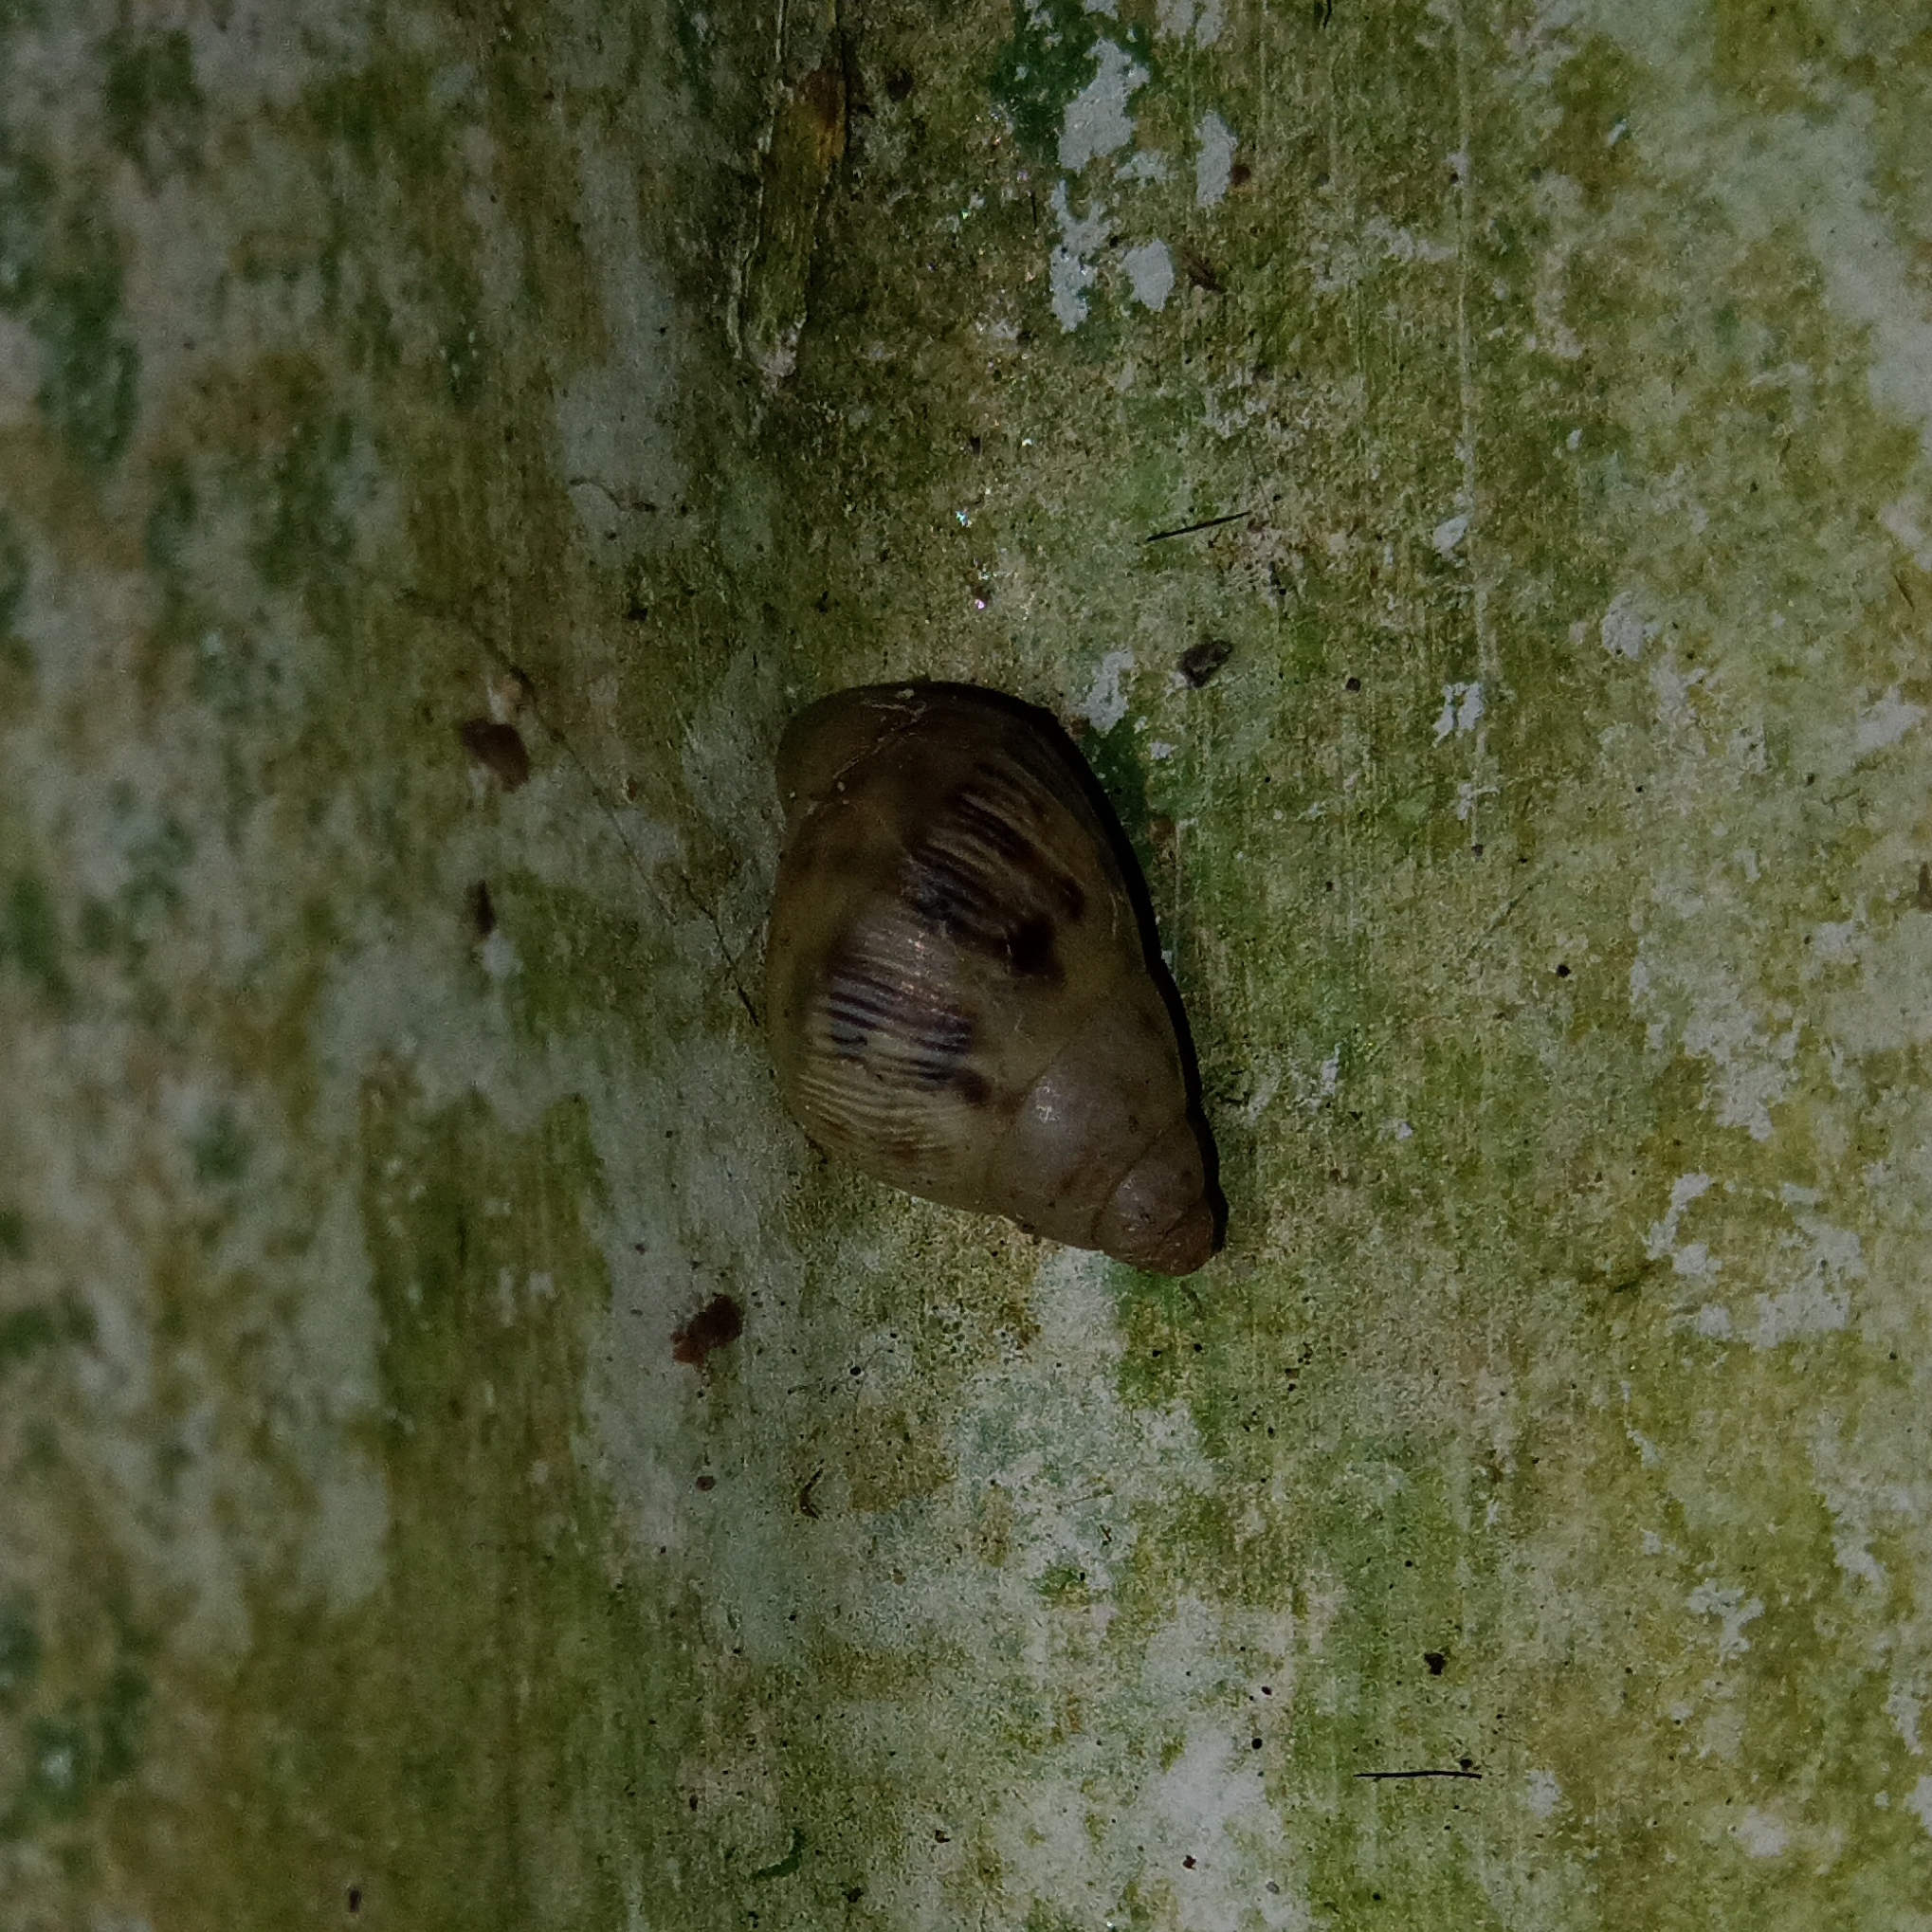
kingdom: Animalia
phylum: Mollusca
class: Gastropoda
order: Stylommatophora
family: Bulimulidae
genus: Drymaeus
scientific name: Drymaeus papyraceus
